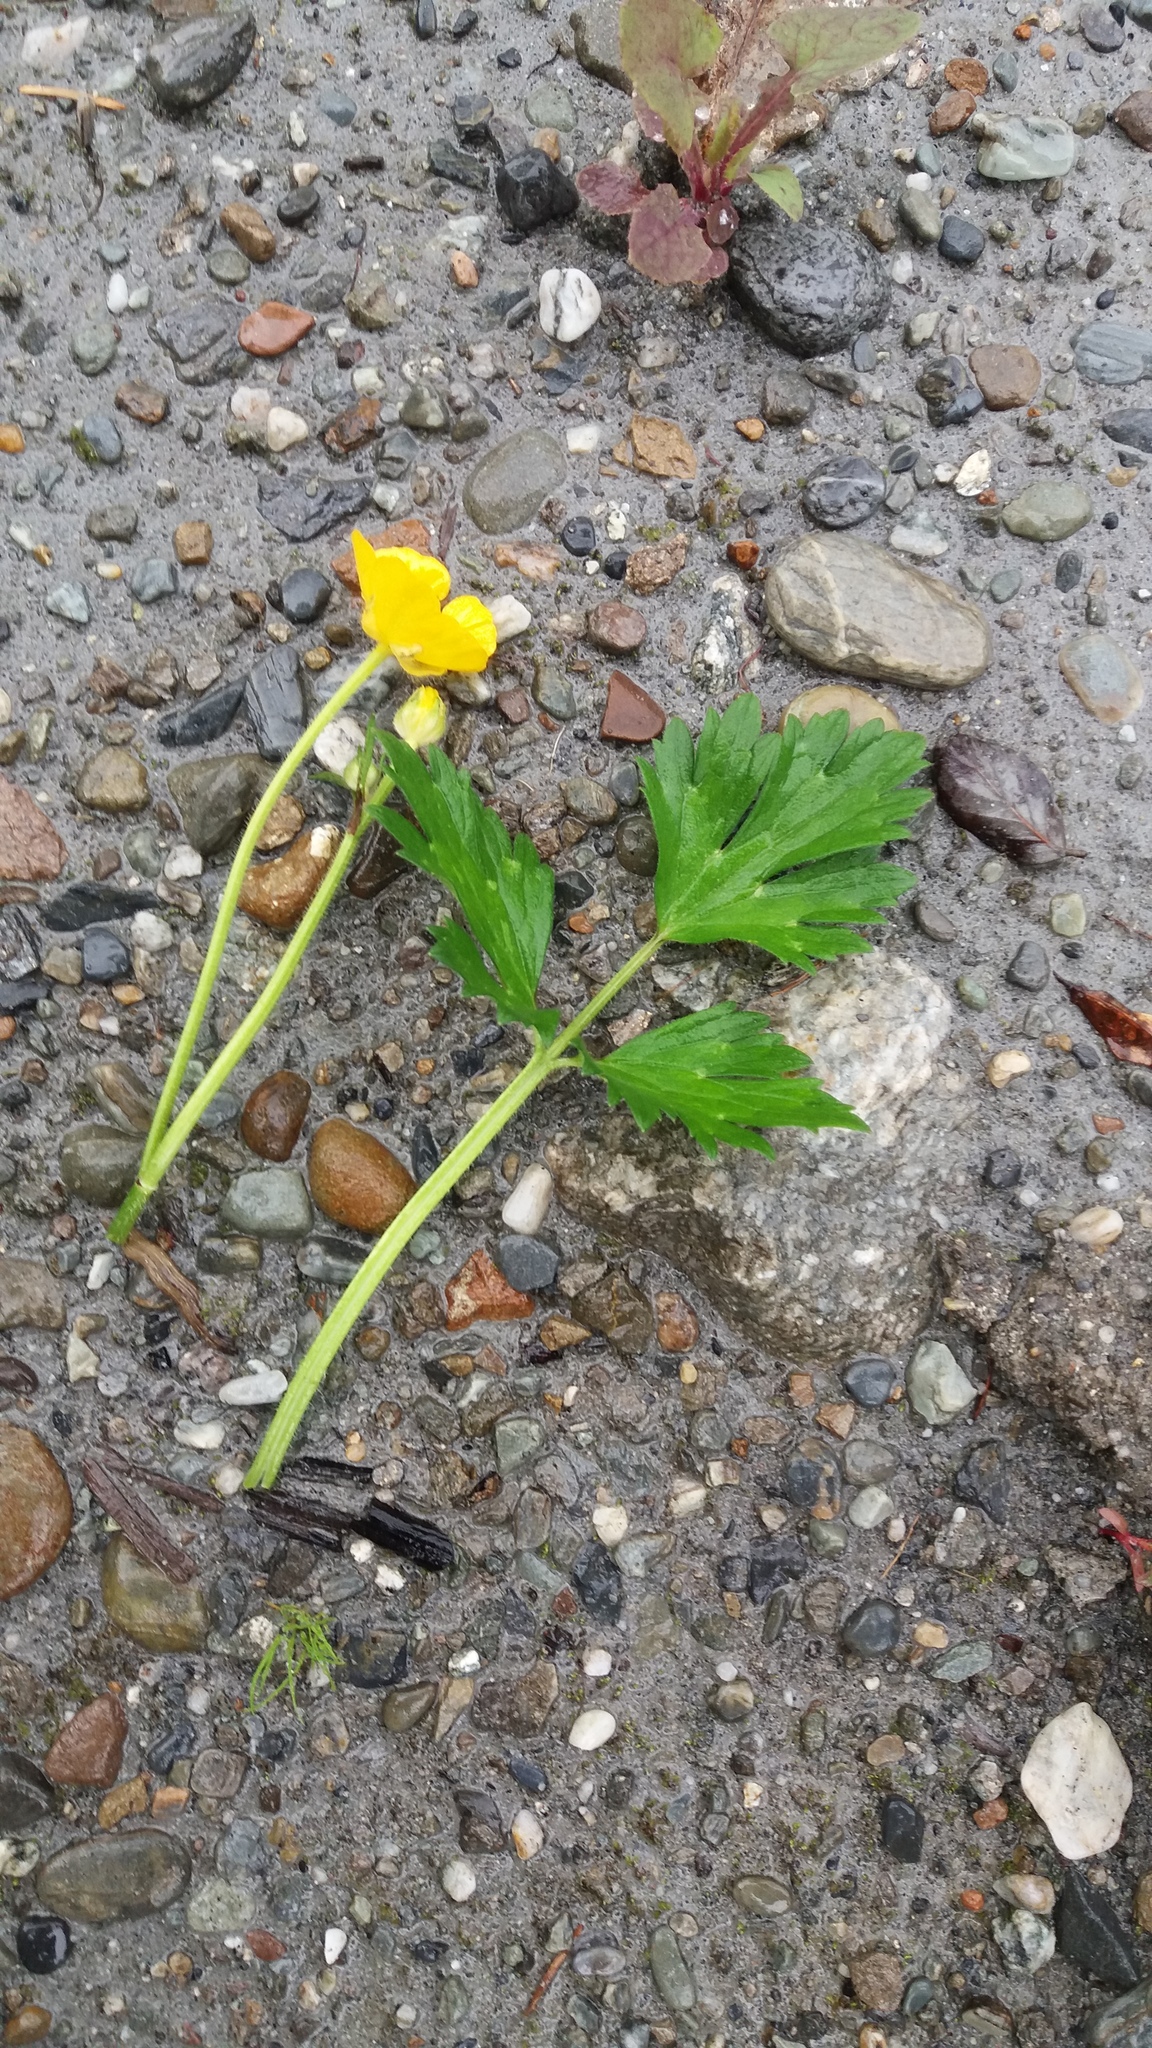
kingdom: Plantae
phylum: Tracheophyta
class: Magnoliopsida
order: Ranunculales
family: Ranunculaceae
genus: Ranunculus
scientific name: Ranunculus repens
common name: Creeping buttercup
